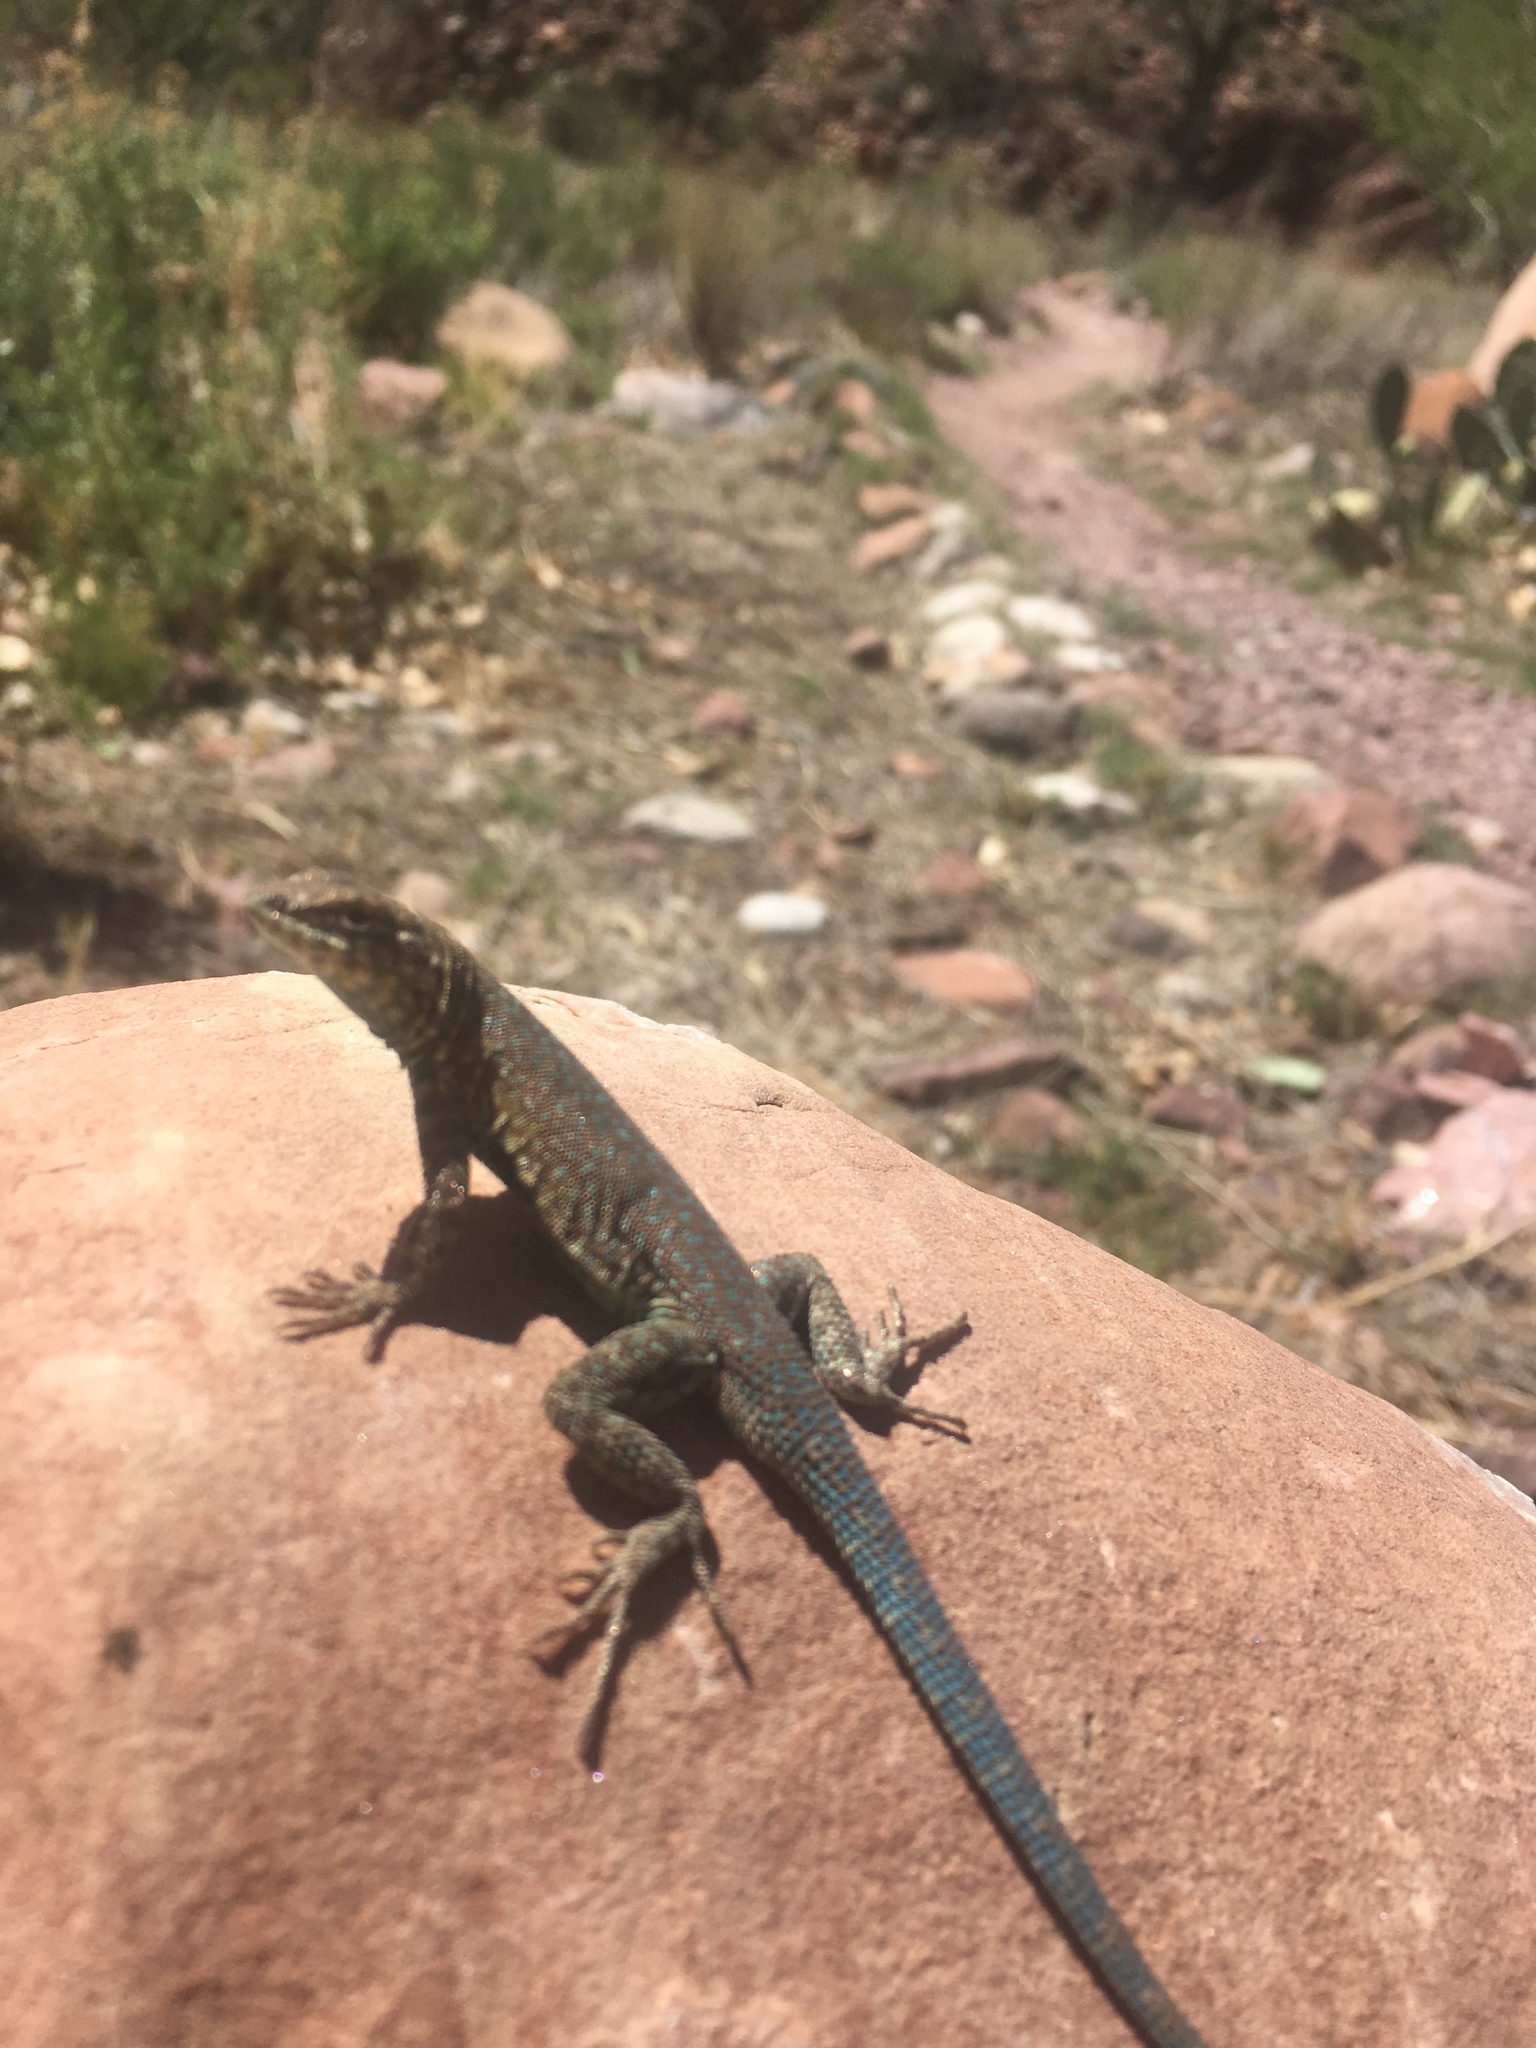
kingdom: Animalia
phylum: Chordata
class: Squamata
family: Phrynosomatidae
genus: Uta
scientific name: Uta stansburiana
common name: Side-blotched lizard
